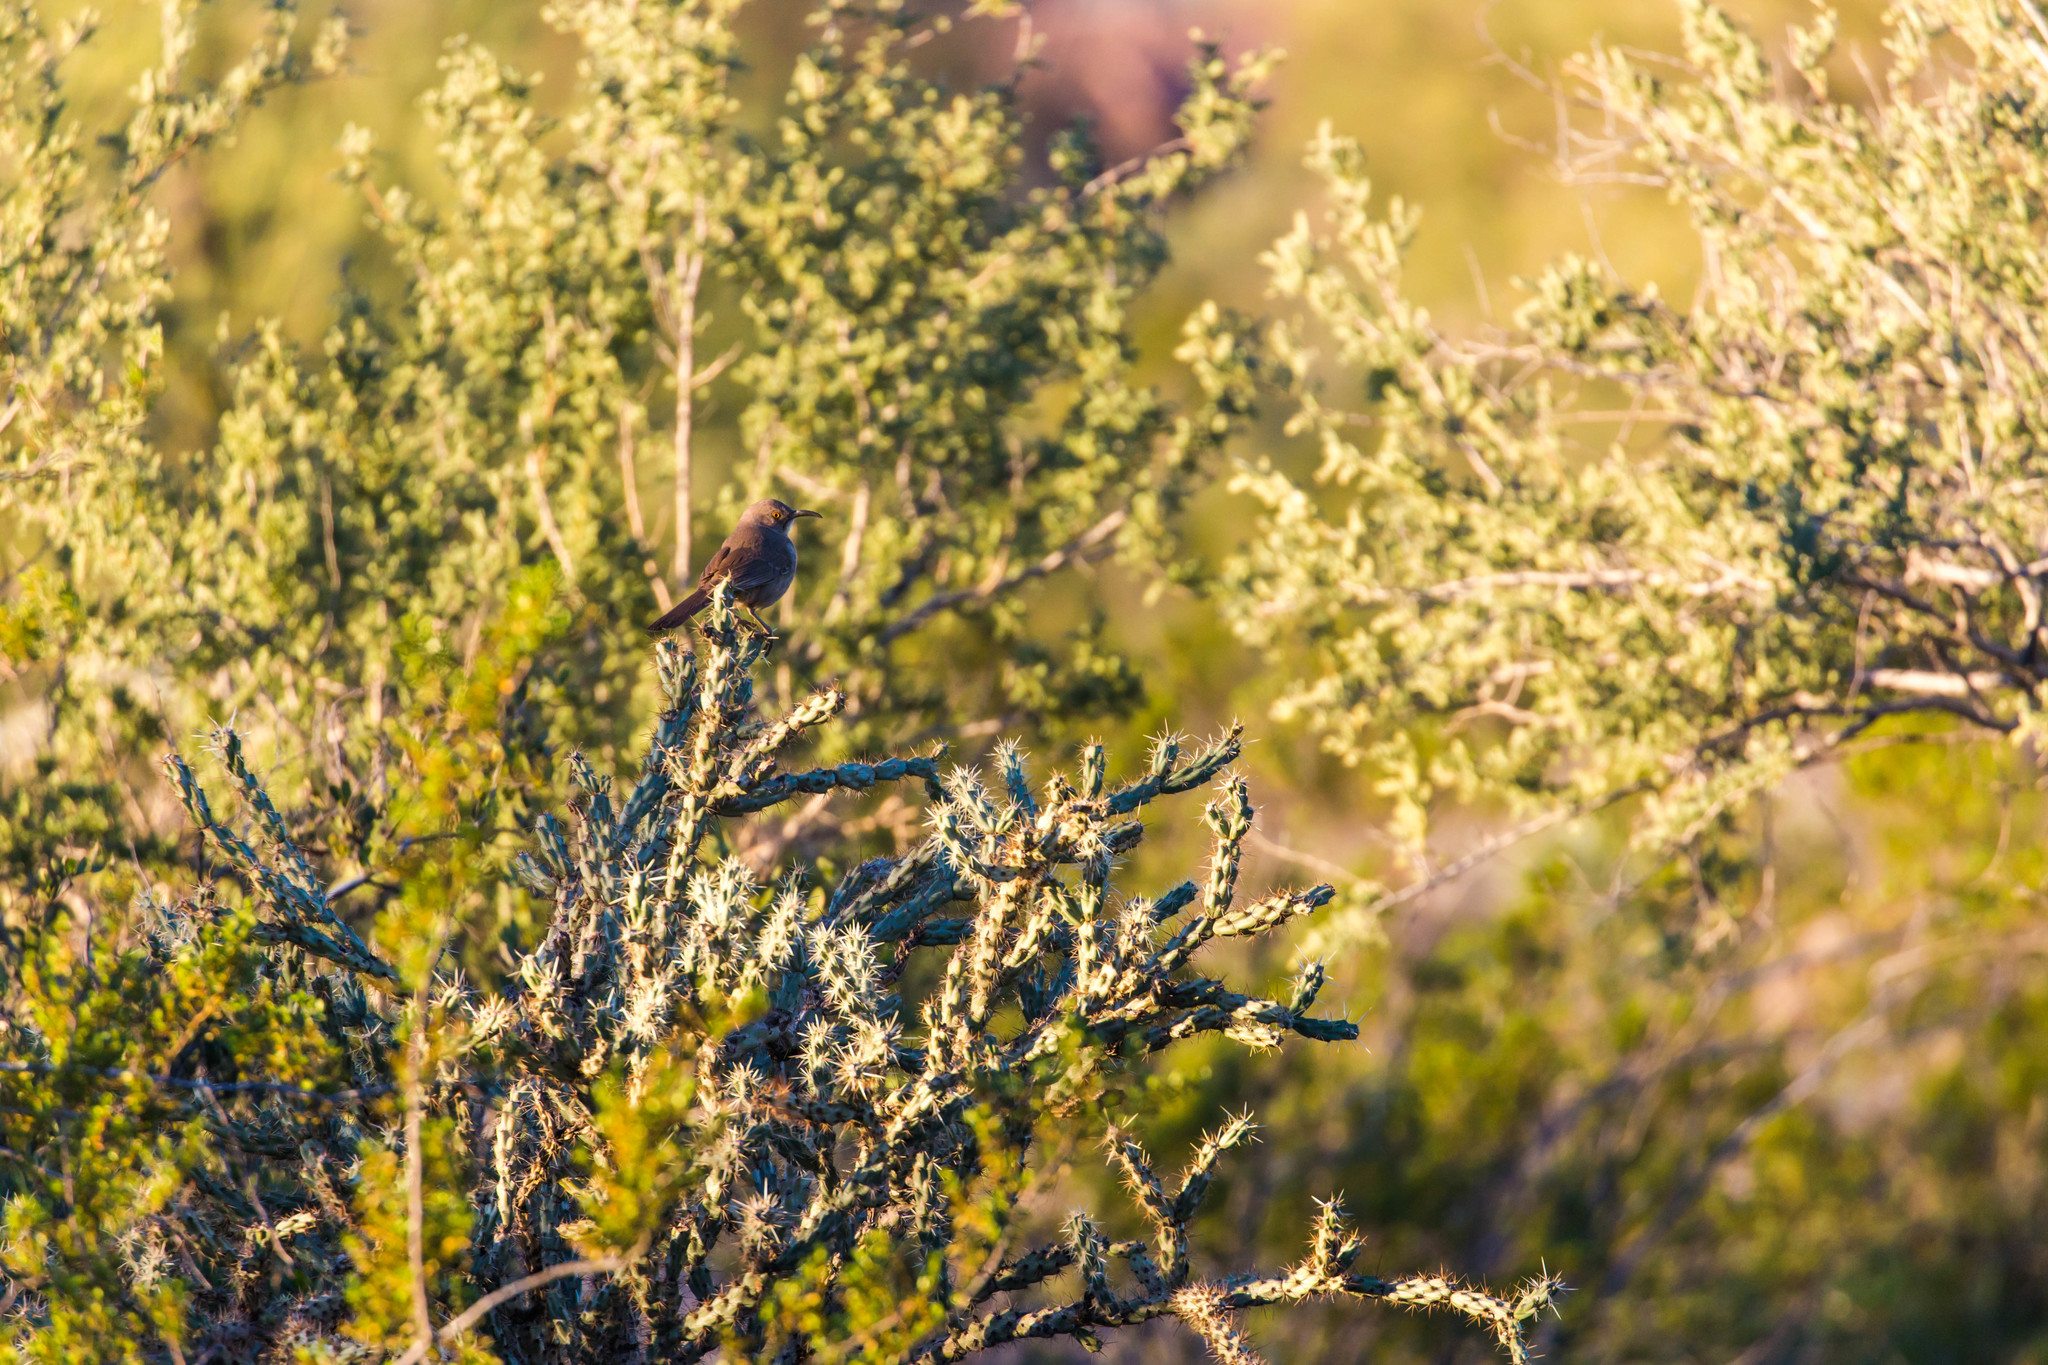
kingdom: Animalia
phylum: Chordata
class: Aves
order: Passeriformes
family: Mimidae
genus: Toxostoma
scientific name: Toxostoma curvirostre
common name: Curve-billed thrasher
